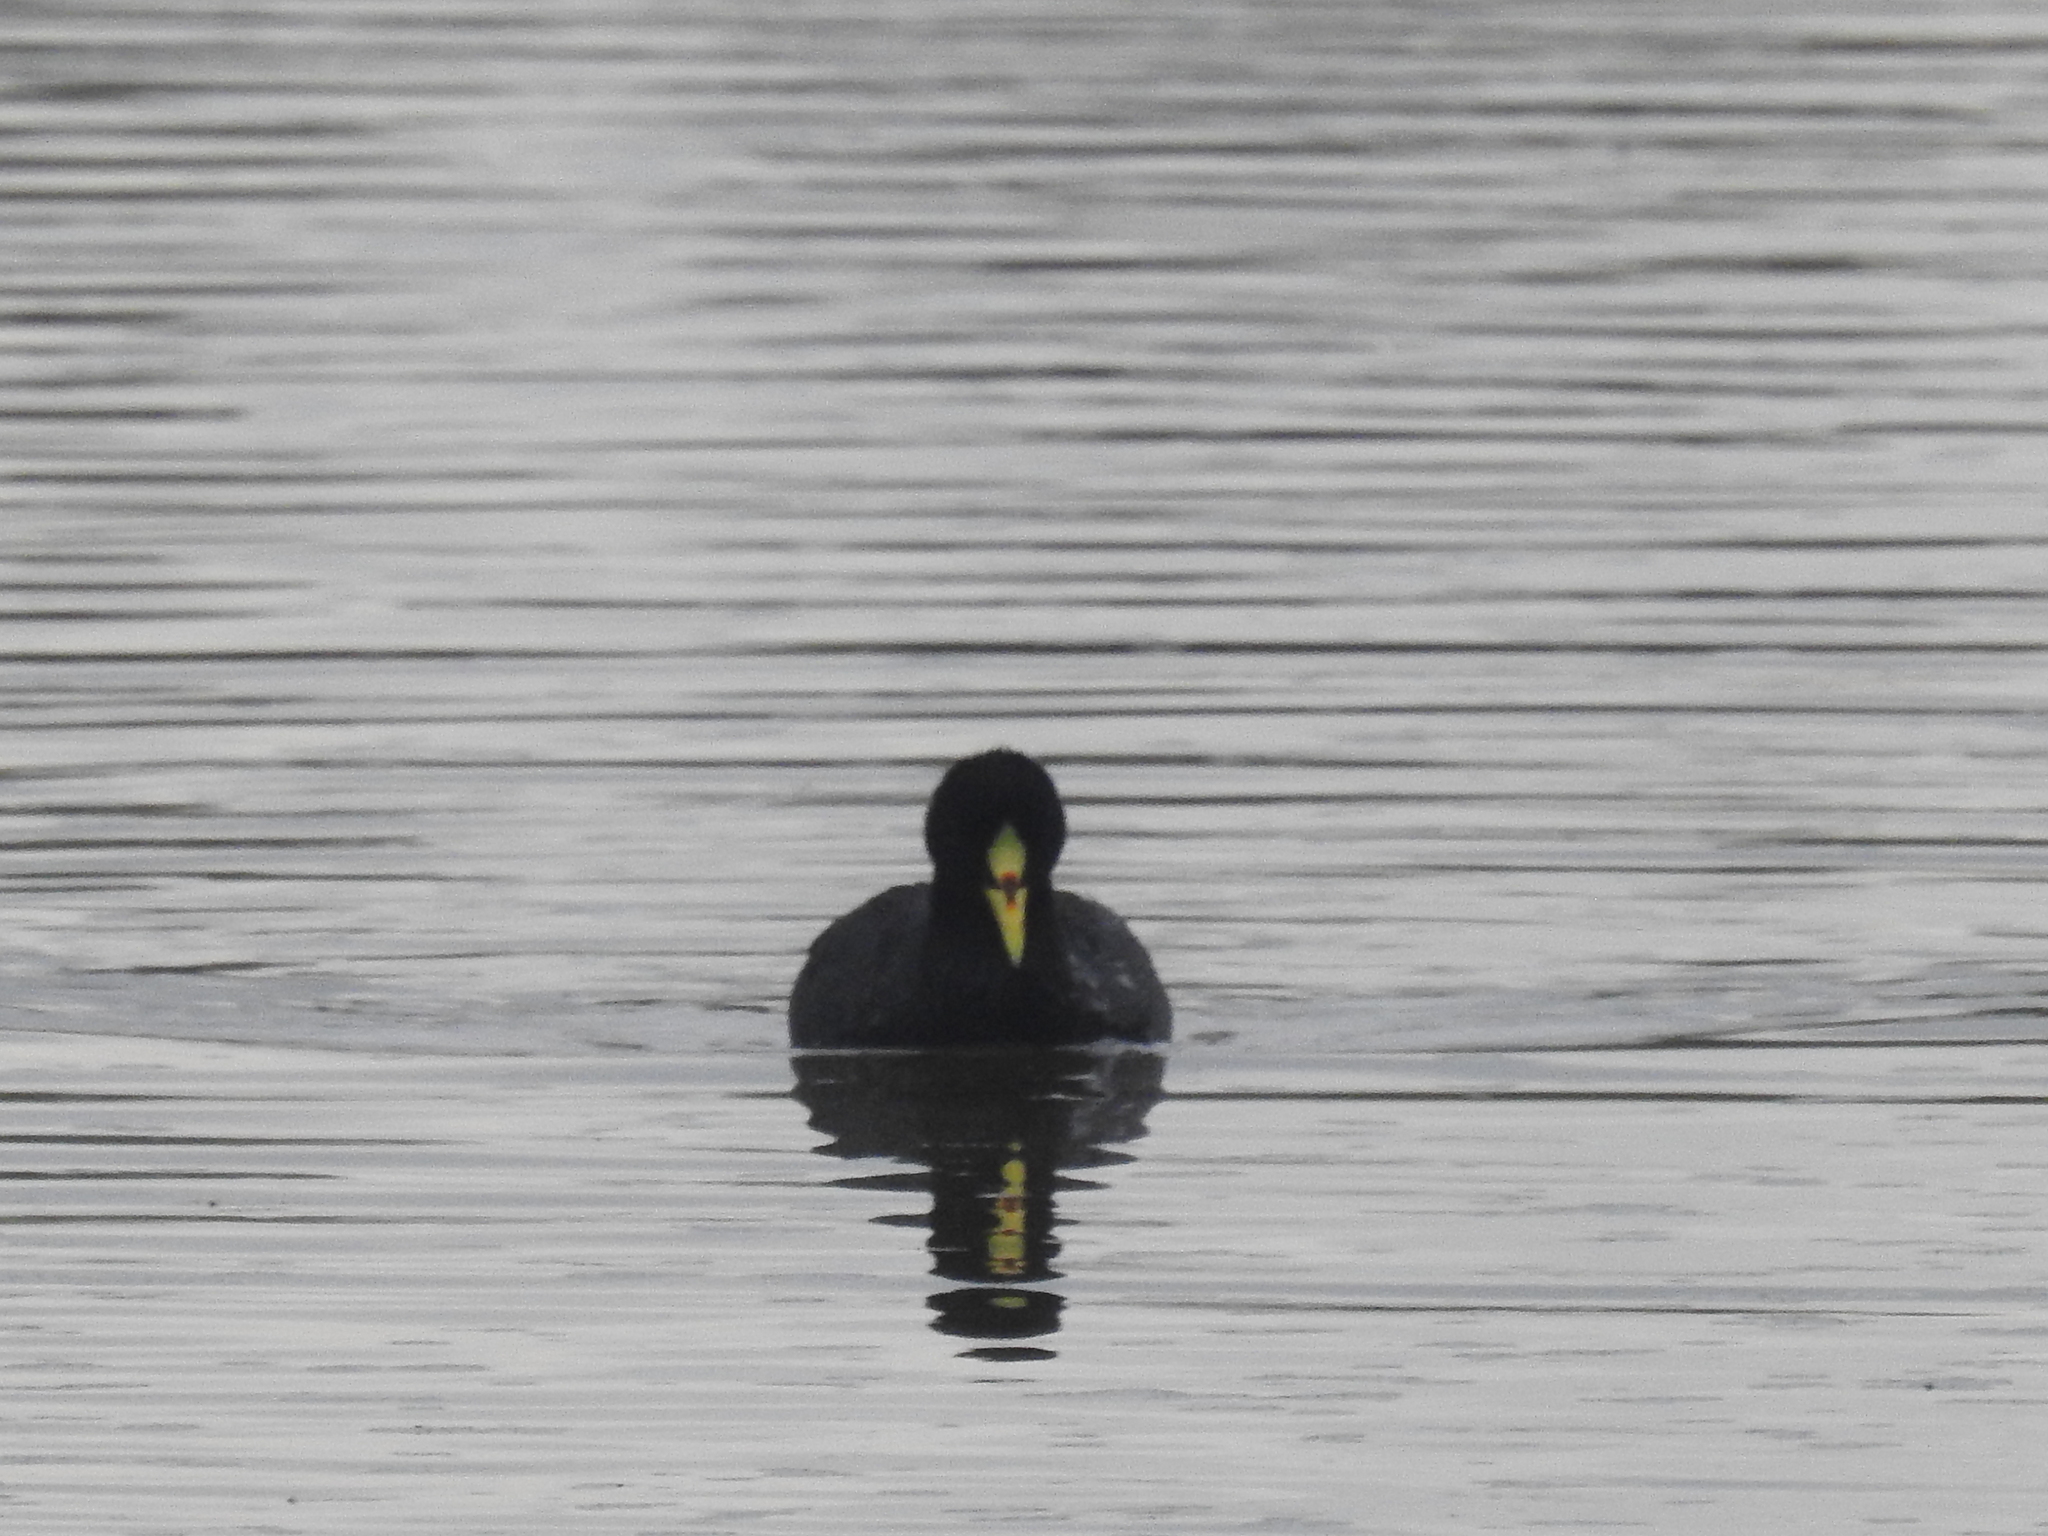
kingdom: Animalia
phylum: Chordata
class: Aves
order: Gruiformes
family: Rallidae
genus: Fulica
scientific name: Fulica armillata
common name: Red-gartered coot
